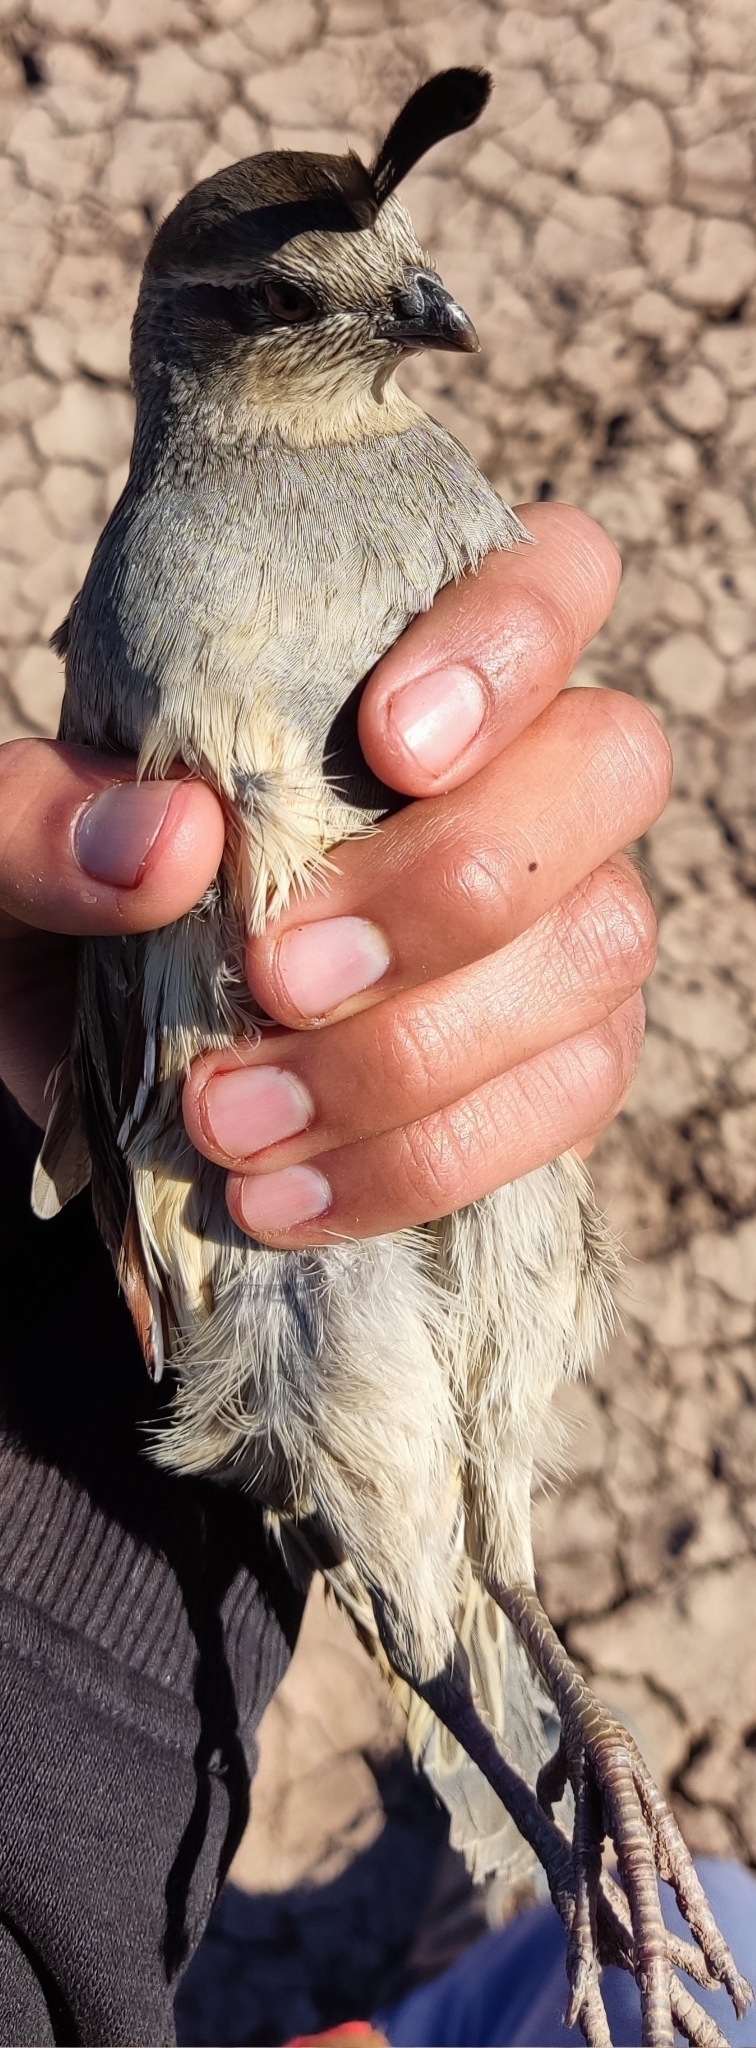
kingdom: Animalia
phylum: Chordata
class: Aves
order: Galliformes
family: Odontophoridae
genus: Callipepla
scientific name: Callipepla gambelii
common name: Gambel's quail
